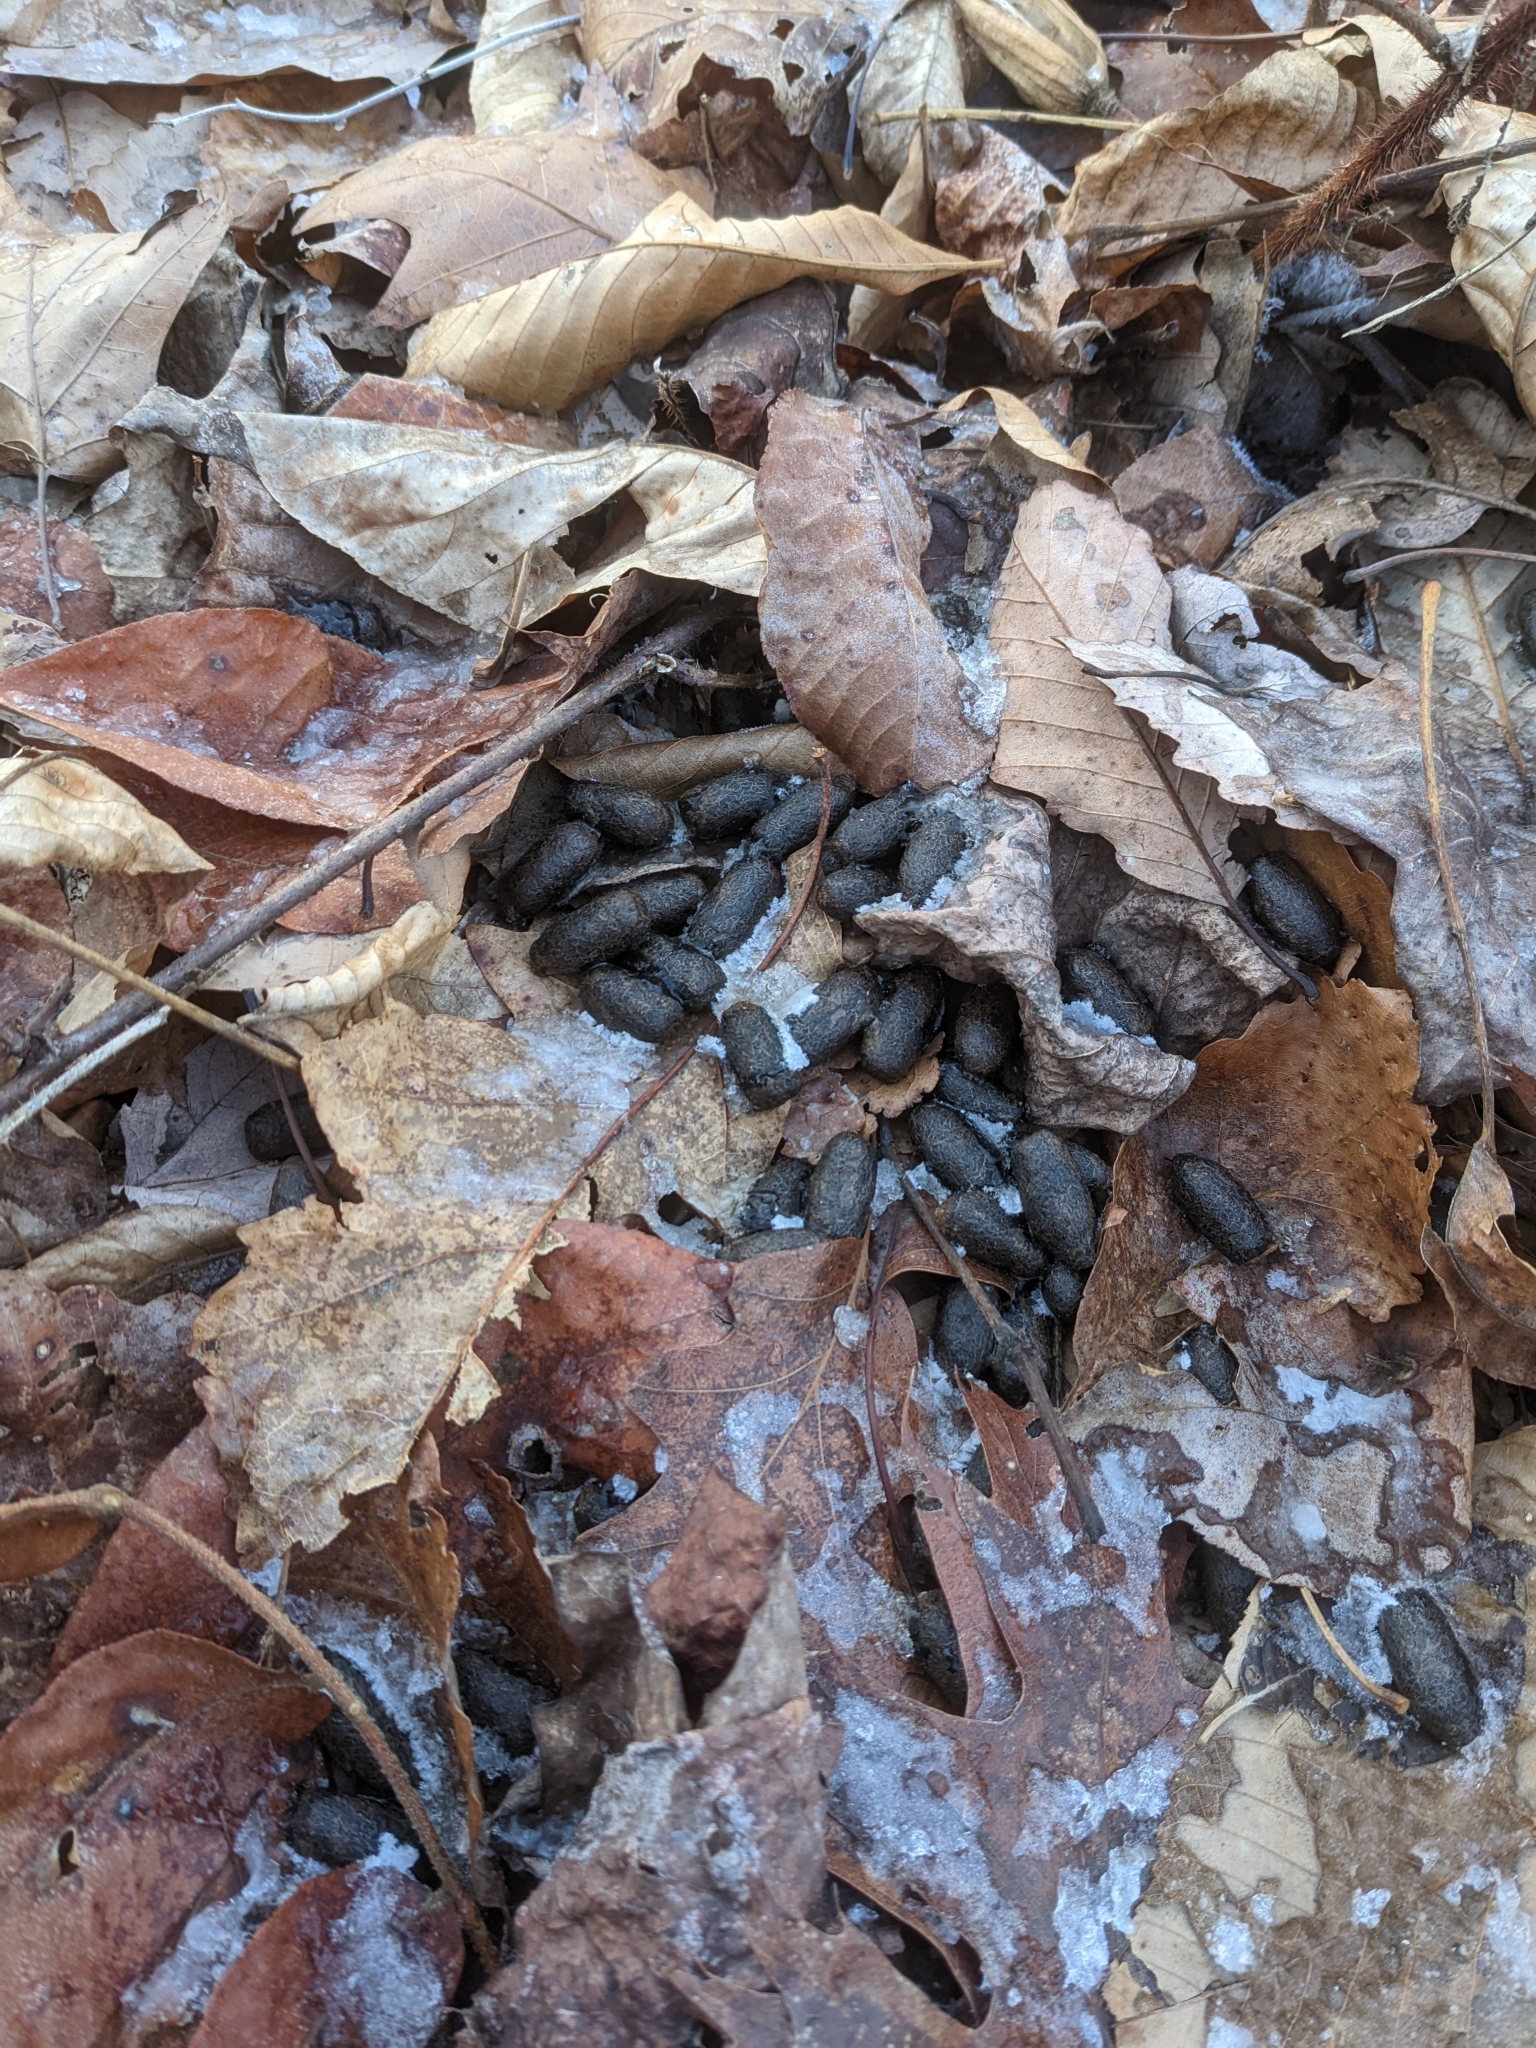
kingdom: Animalia
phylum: Chordata
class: Mammalia
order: Artiodactyla
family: Cervidae
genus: Odocoileus
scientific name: Odocoileus virginianus
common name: White-tailed deer
